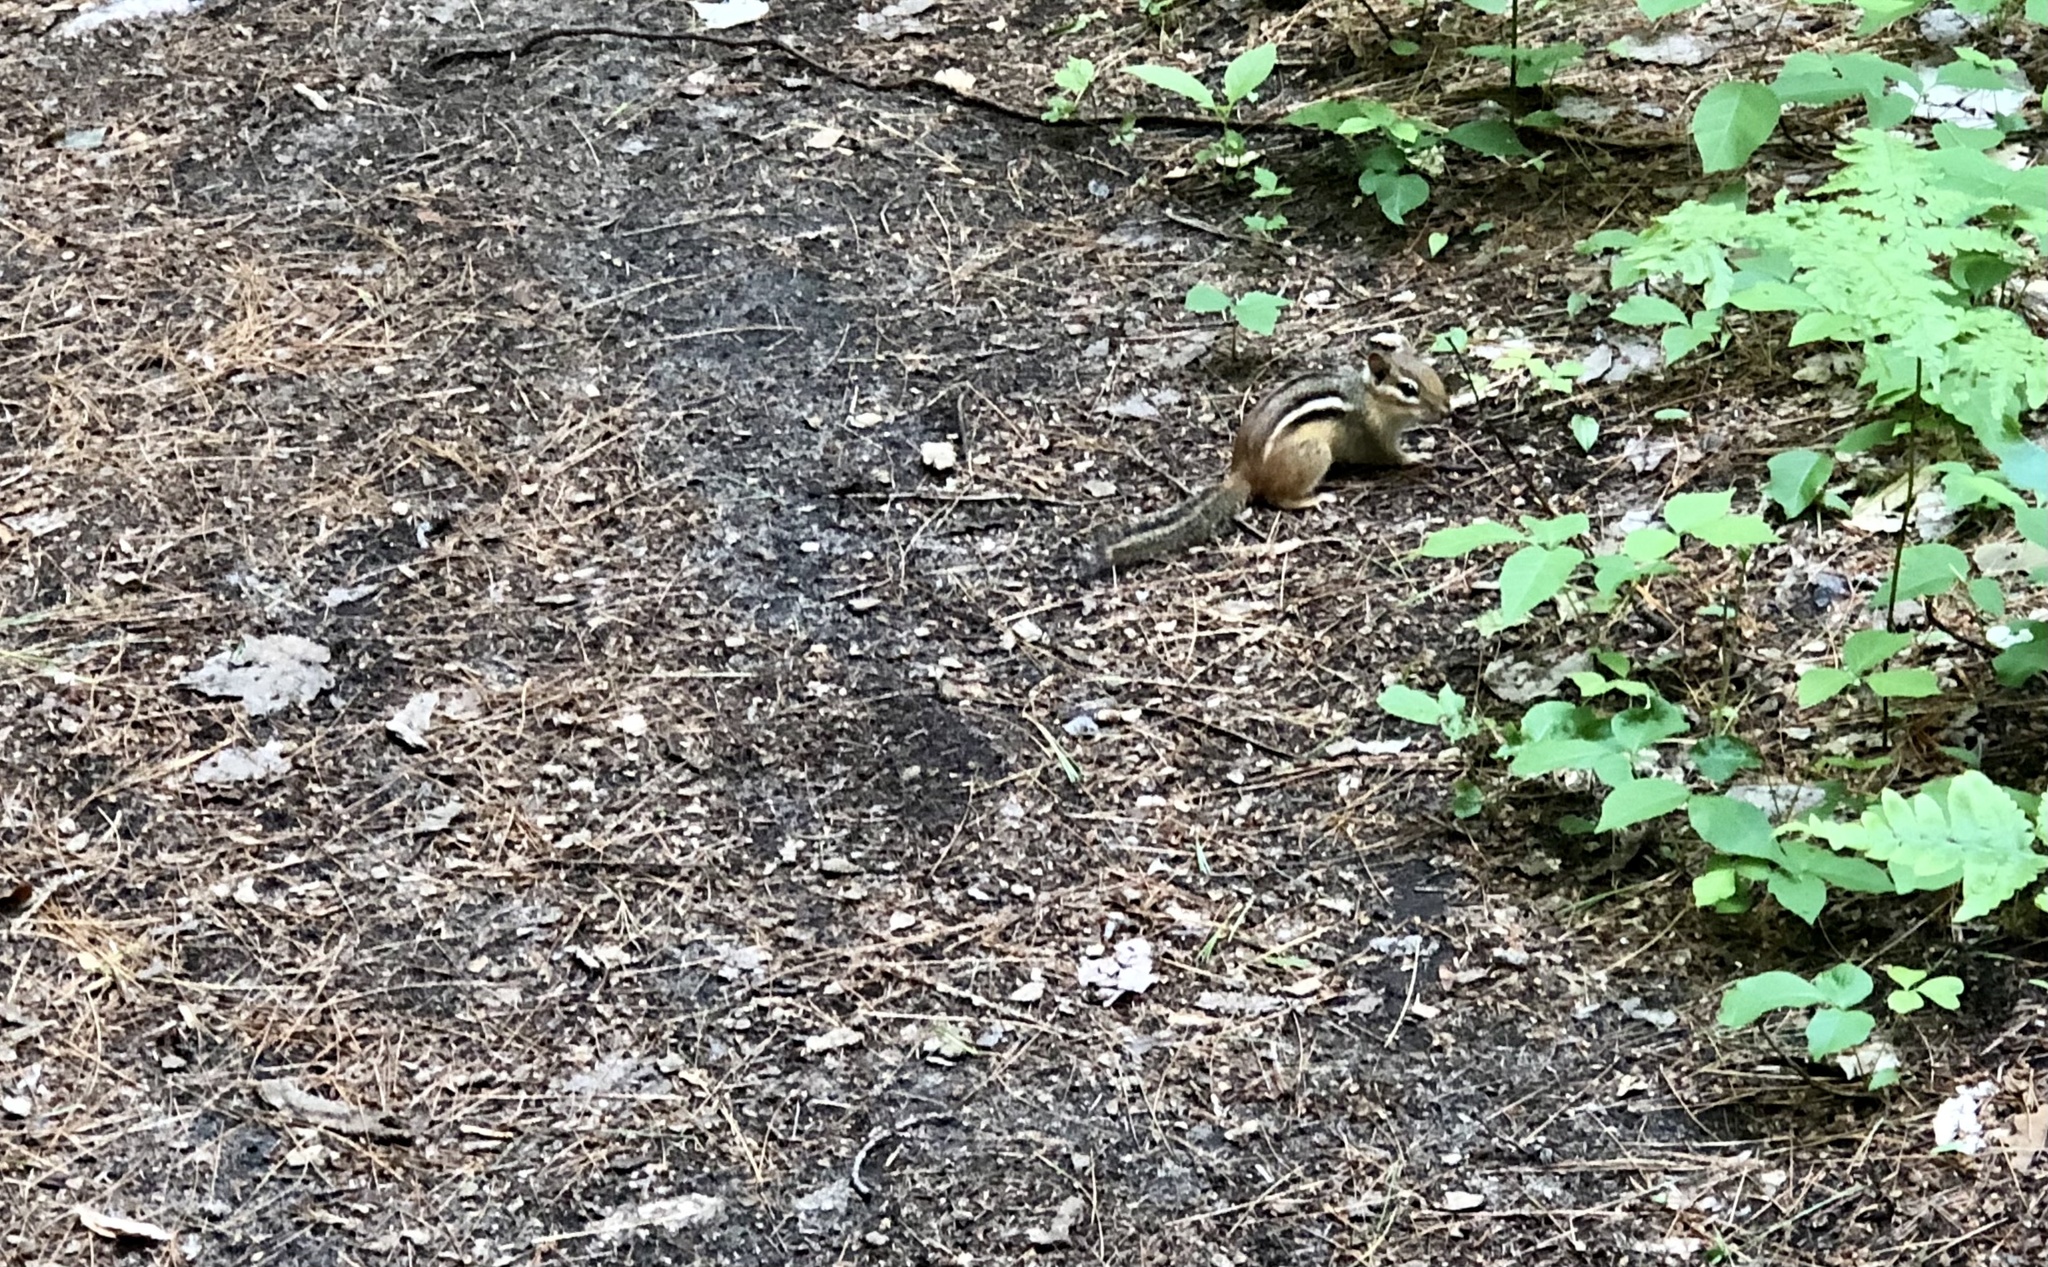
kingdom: Animalia
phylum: Chordata
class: Mammalia
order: Rodentia
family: Sciuridae
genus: Tamias
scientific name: Tamias striatus
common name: Eastern chipmunk
